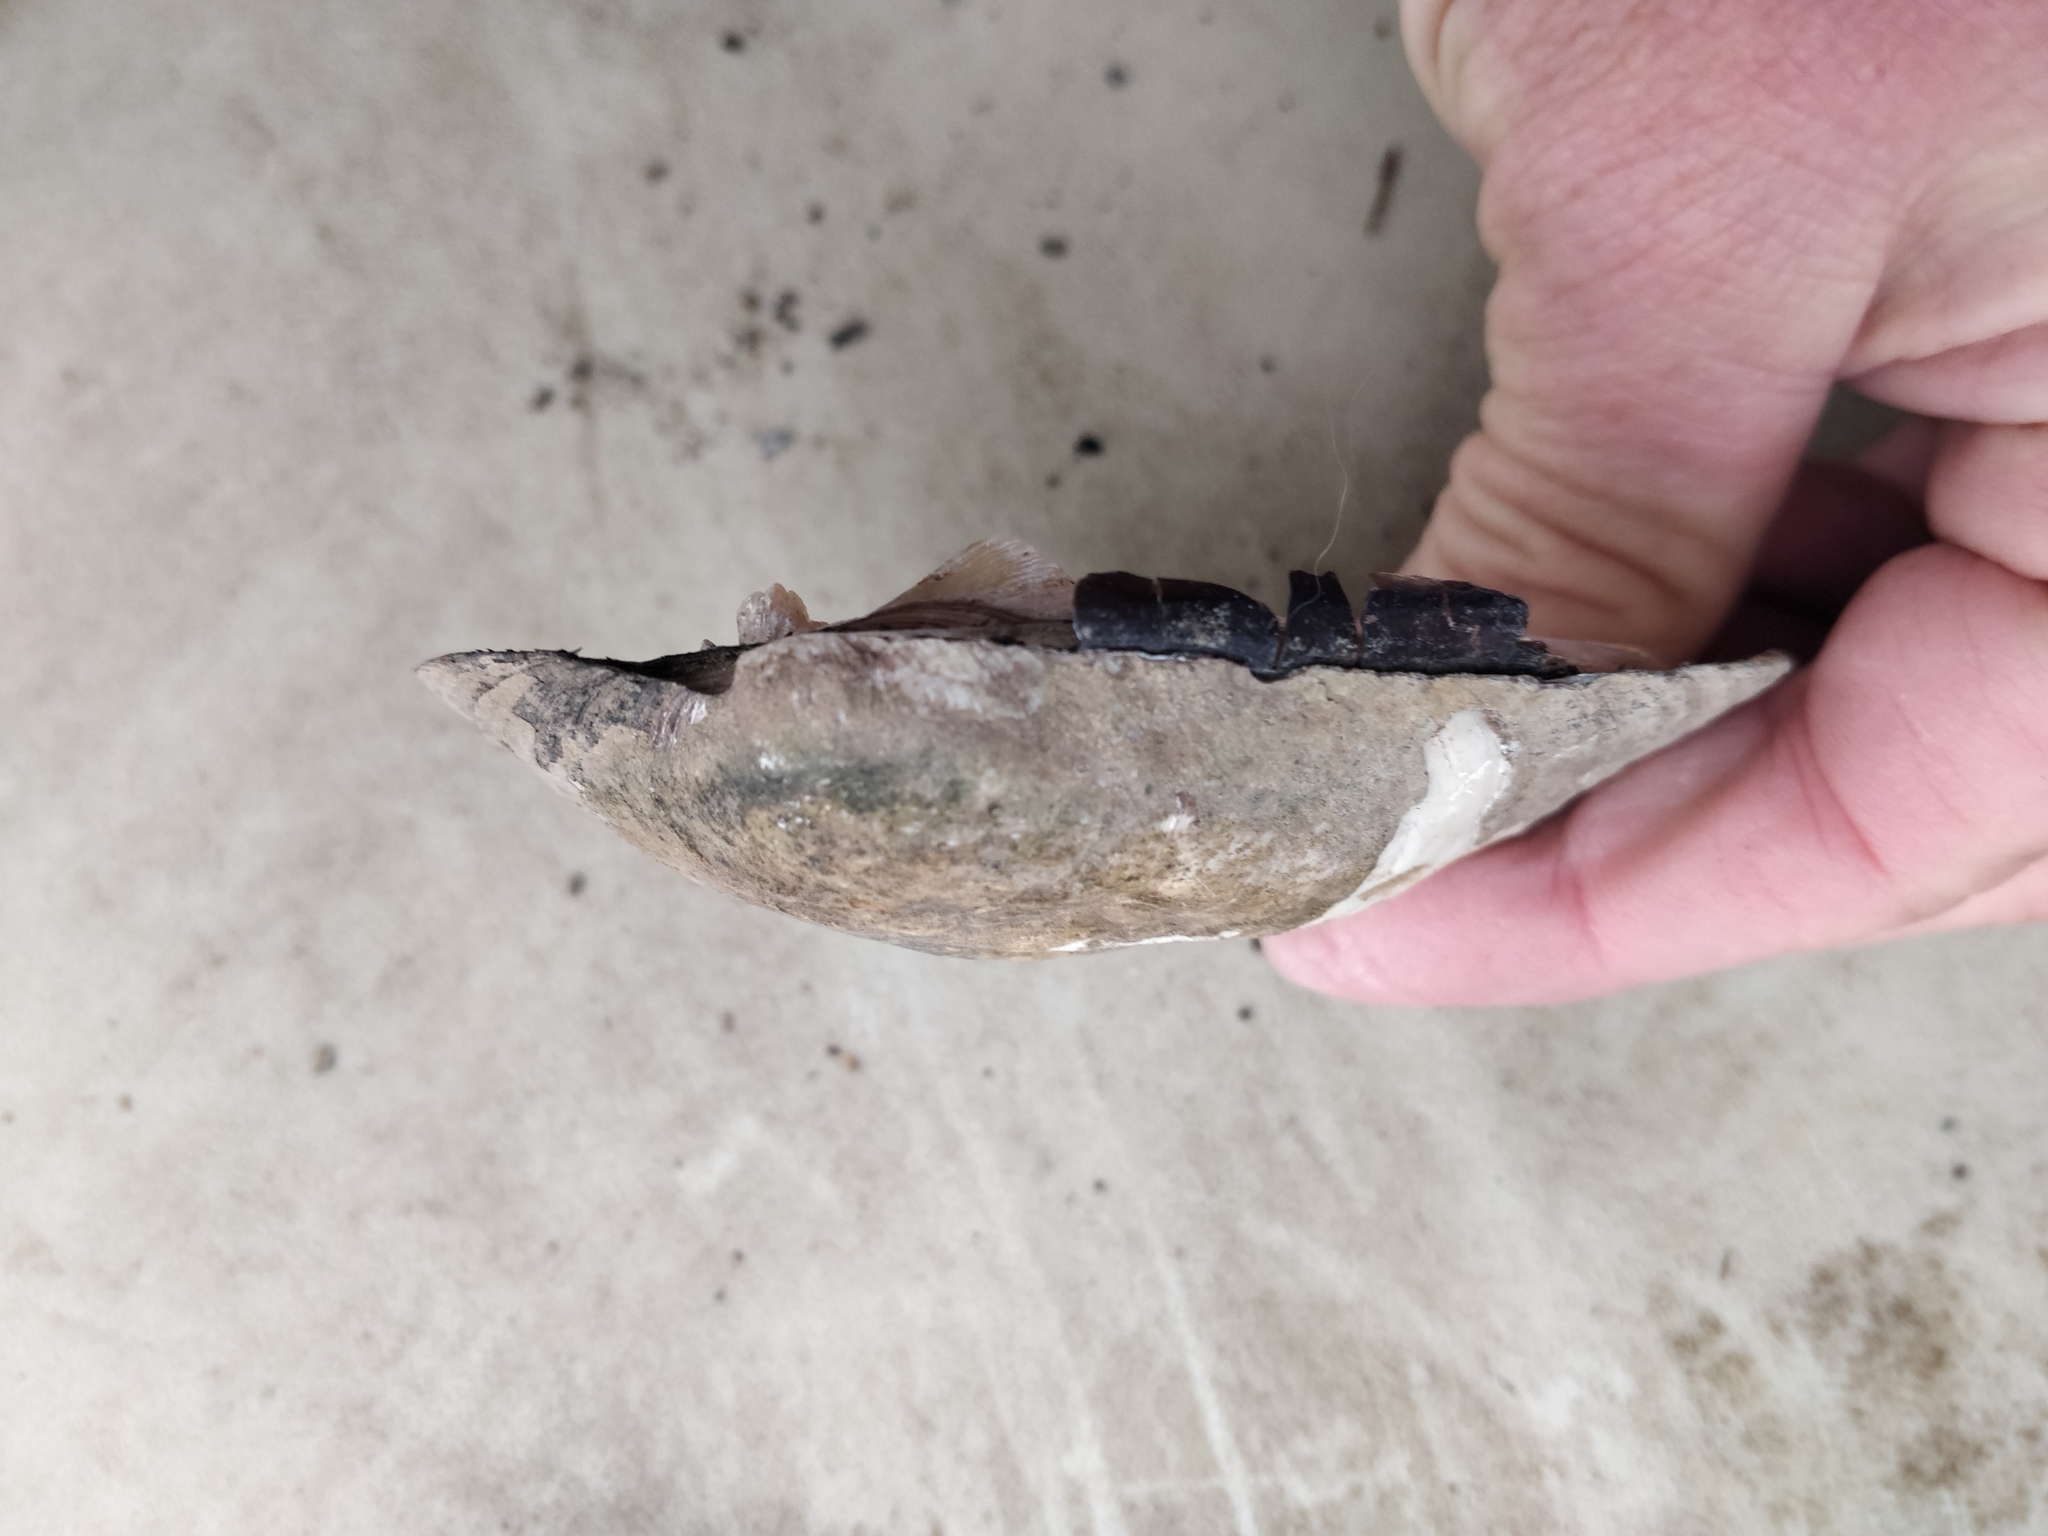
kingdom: Animalia
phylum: Mollusca
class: Bivalvia
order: Unionida
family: Unionidae
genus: Amblema
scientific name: Amblema plicata
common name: Threeridge
